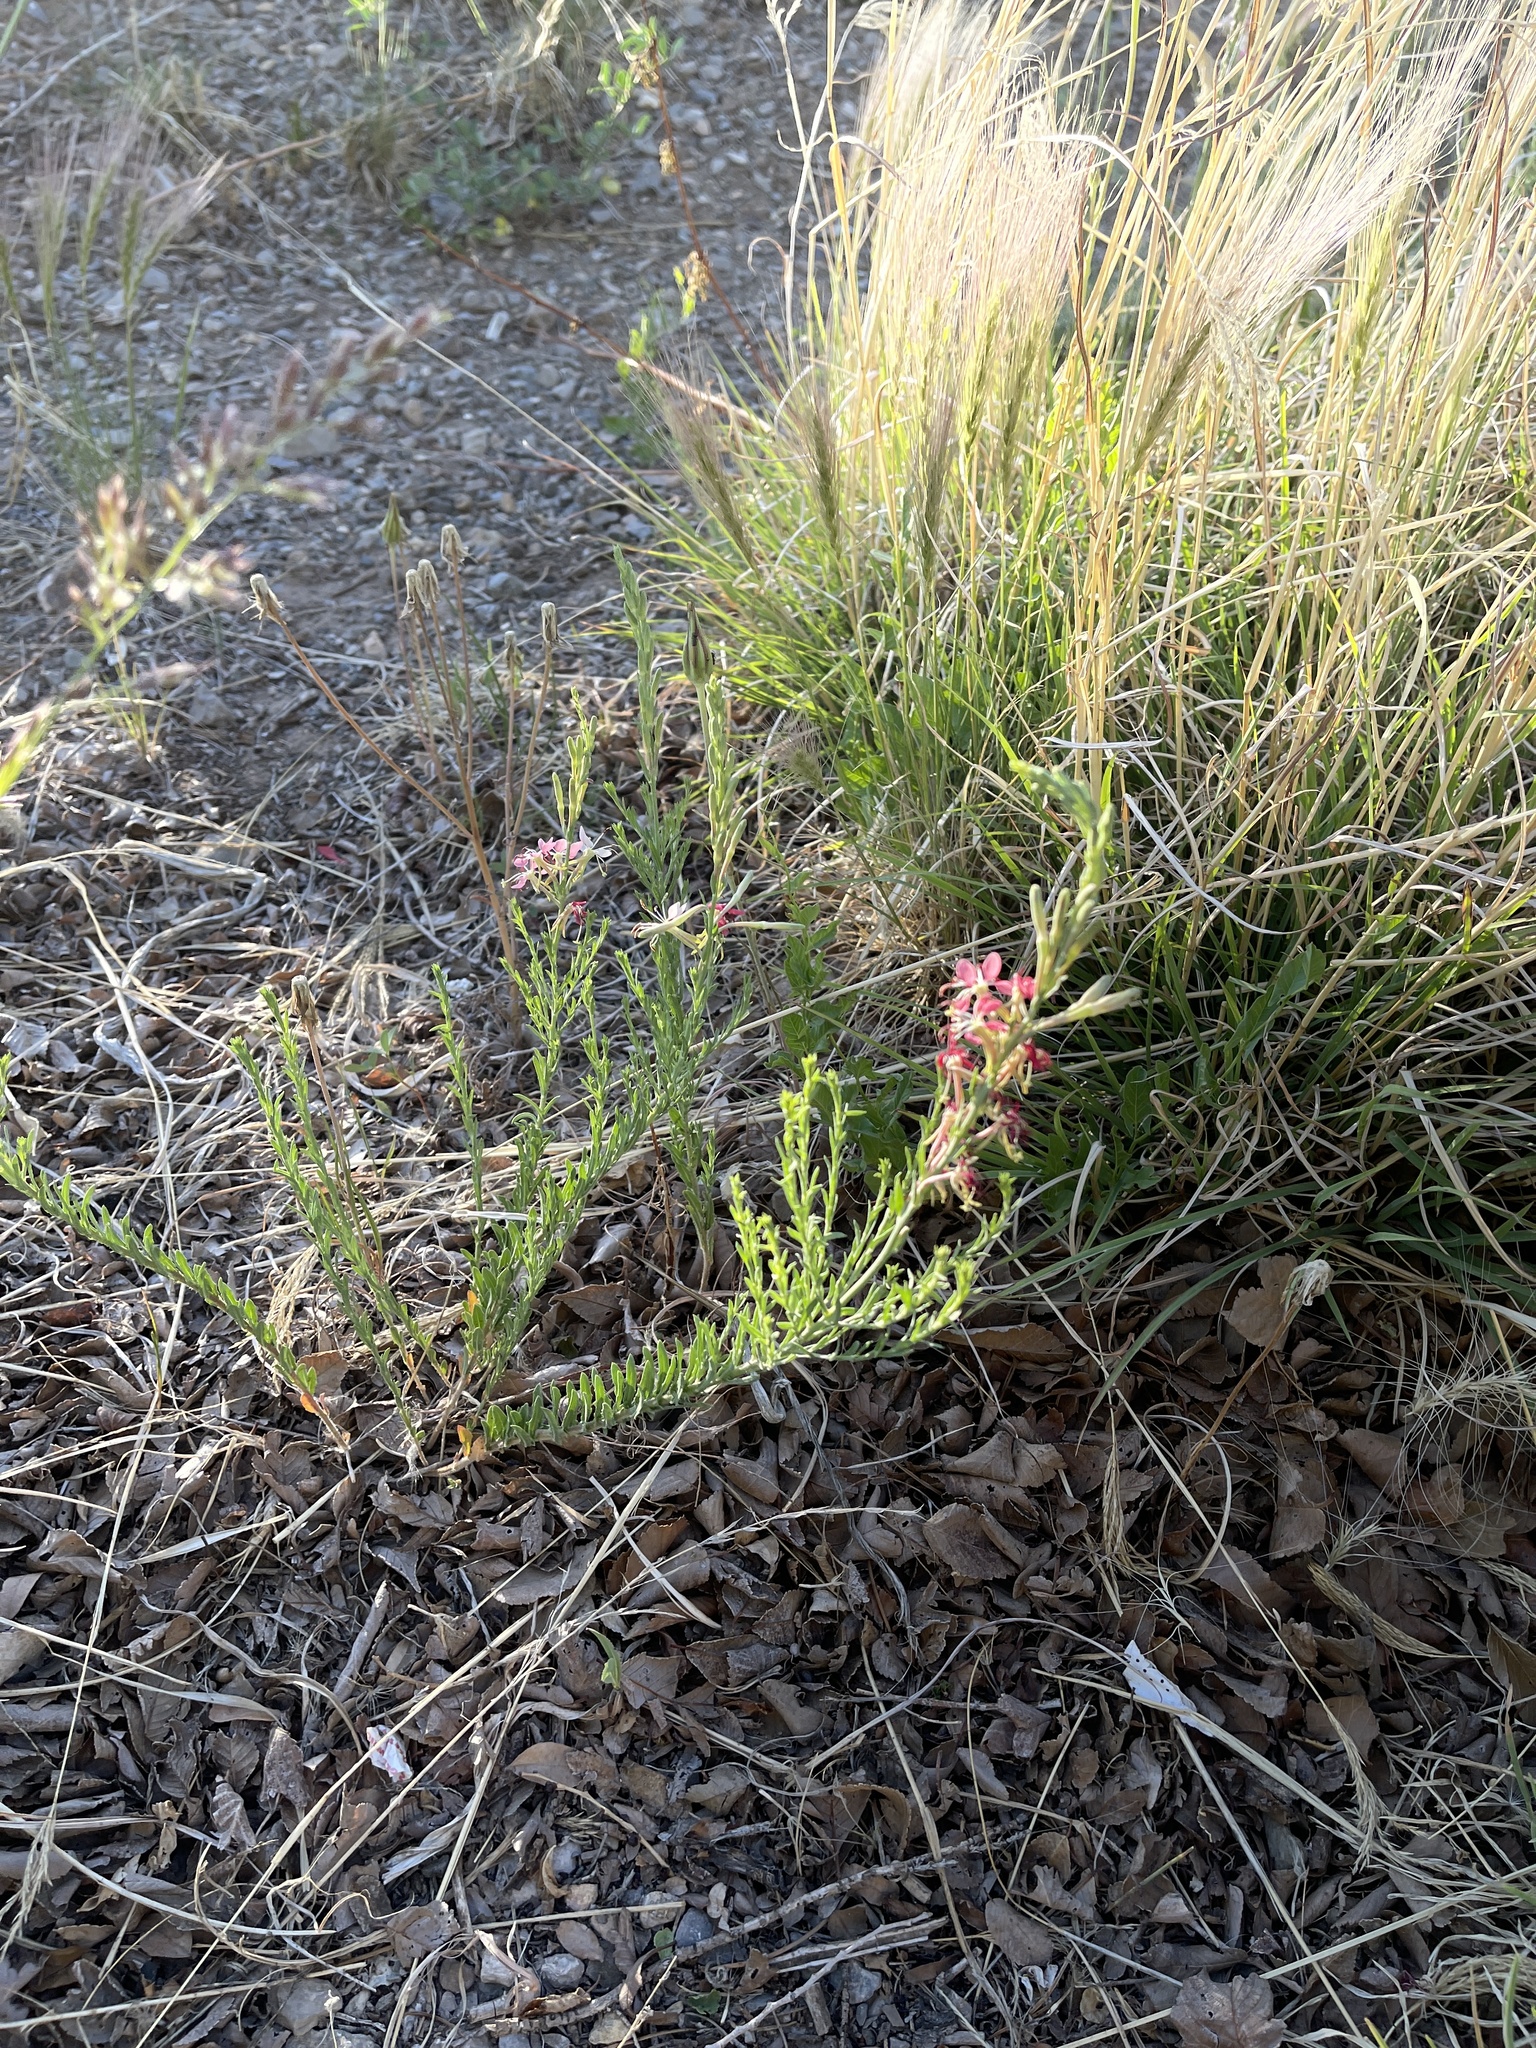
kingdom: Plantae
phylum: Tracheophyta
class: Magnoliopsida
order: Myrtales
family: Onagraceae
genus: Oenothera
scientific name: Oenothera suffrutescens
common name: Scarlet beeblossom
